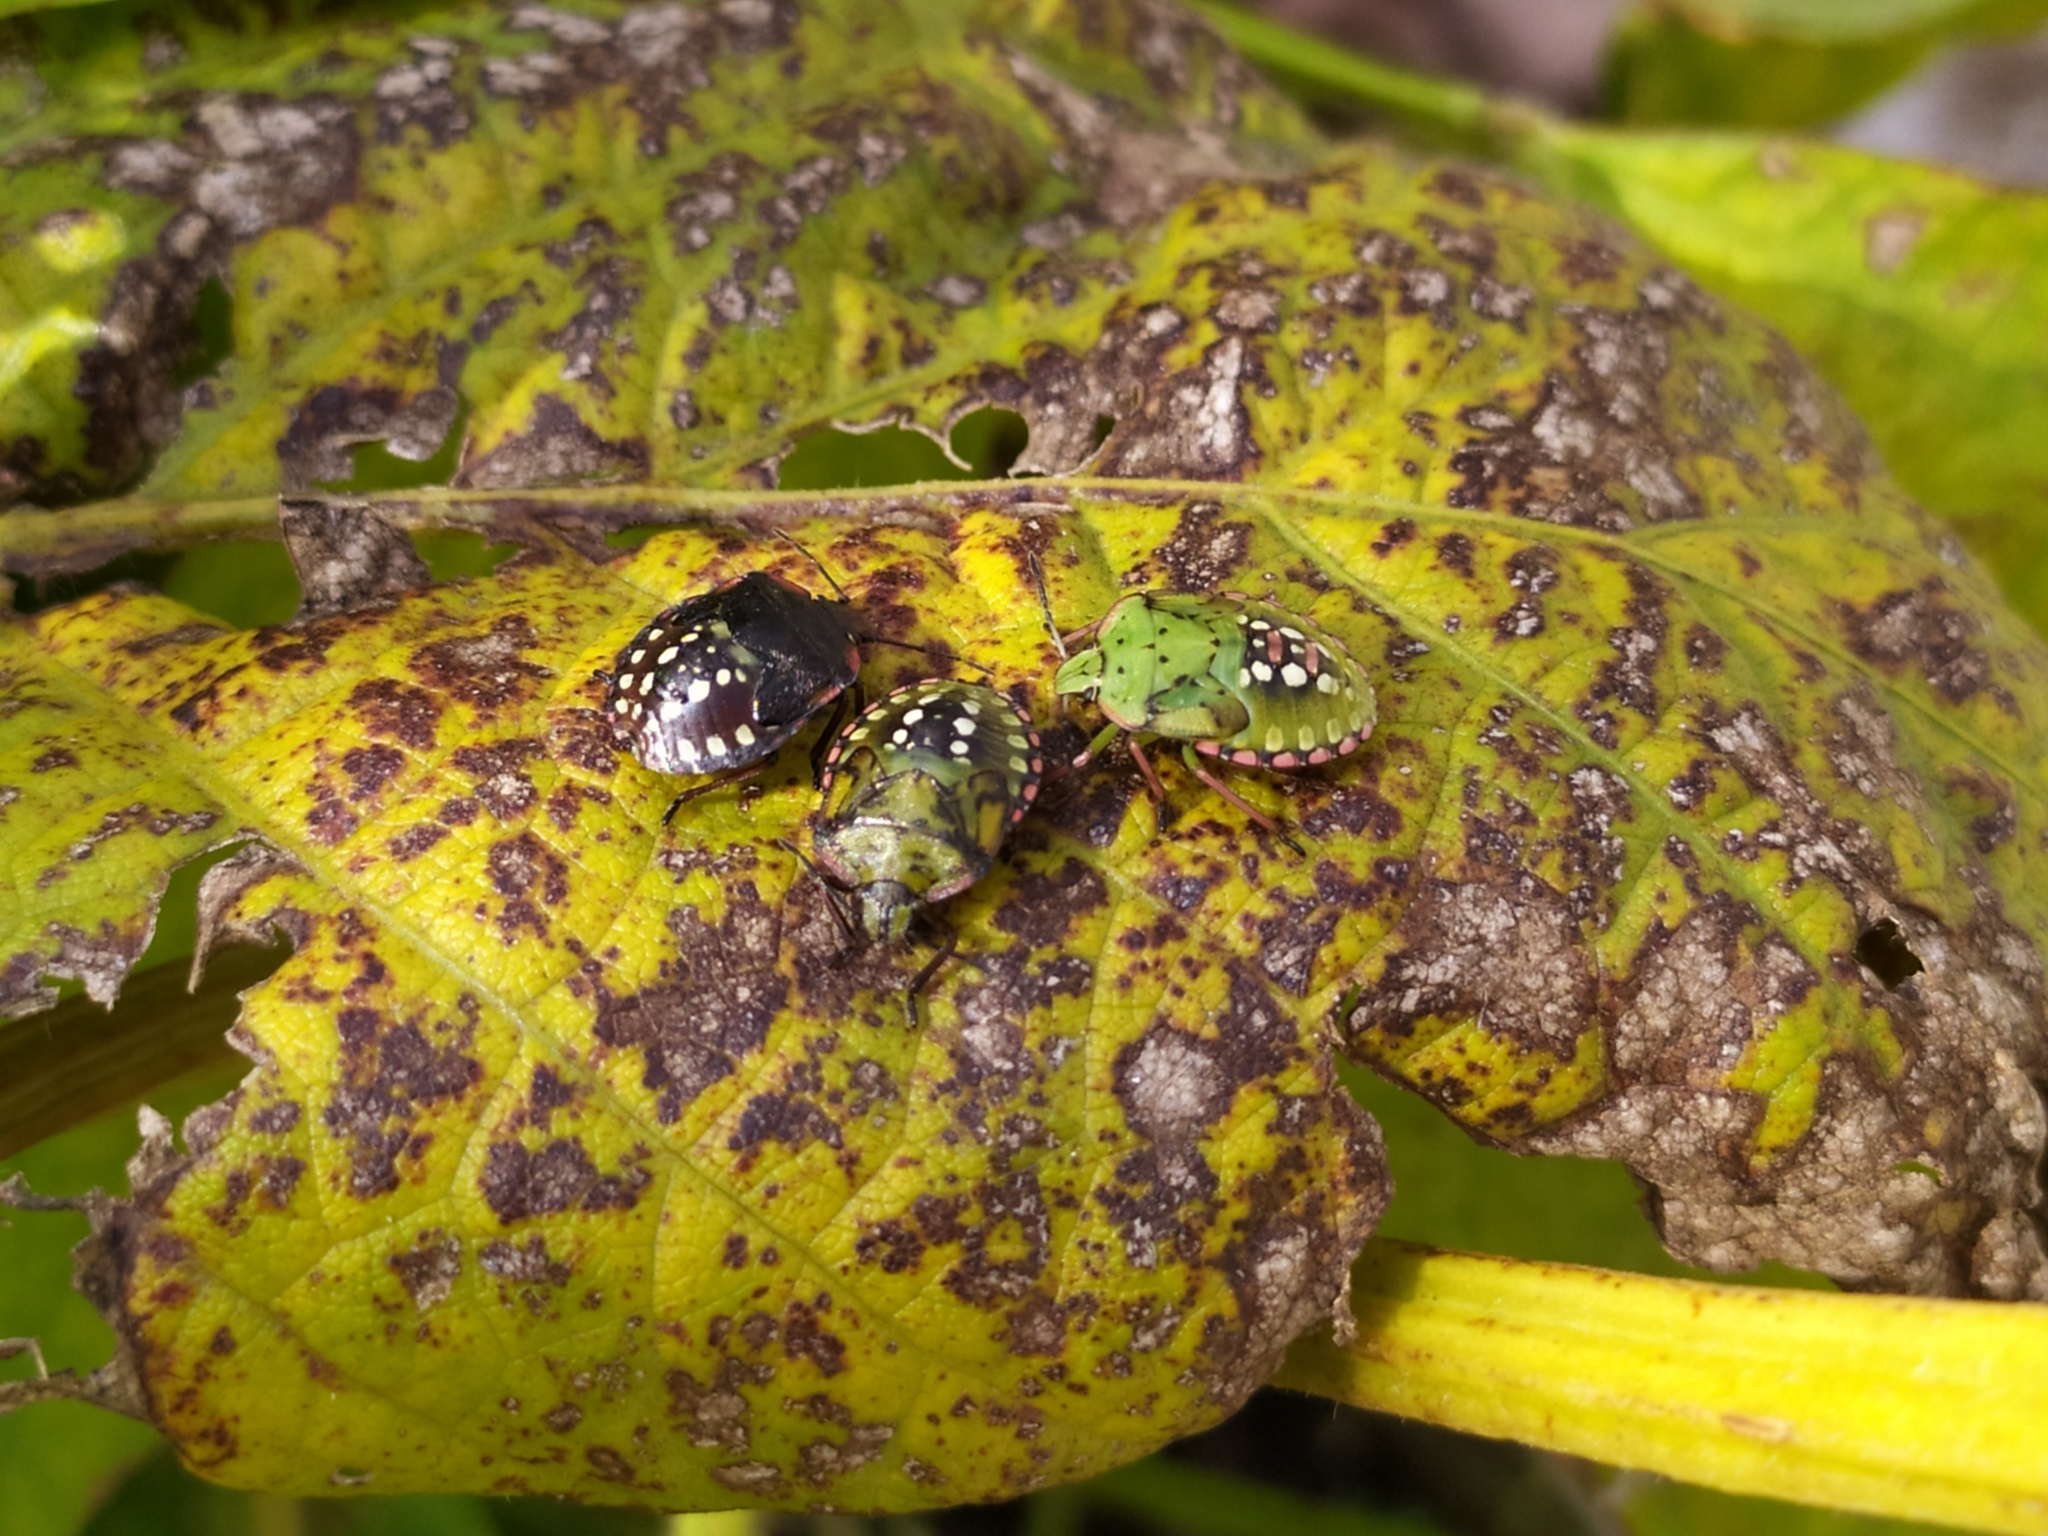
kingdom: Animalia
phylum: Arthropoda
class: Insecta
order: Hemiptera
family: Pentatomidae
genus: Nezara
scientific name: Nezara viridula
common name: Southern green stink bug
